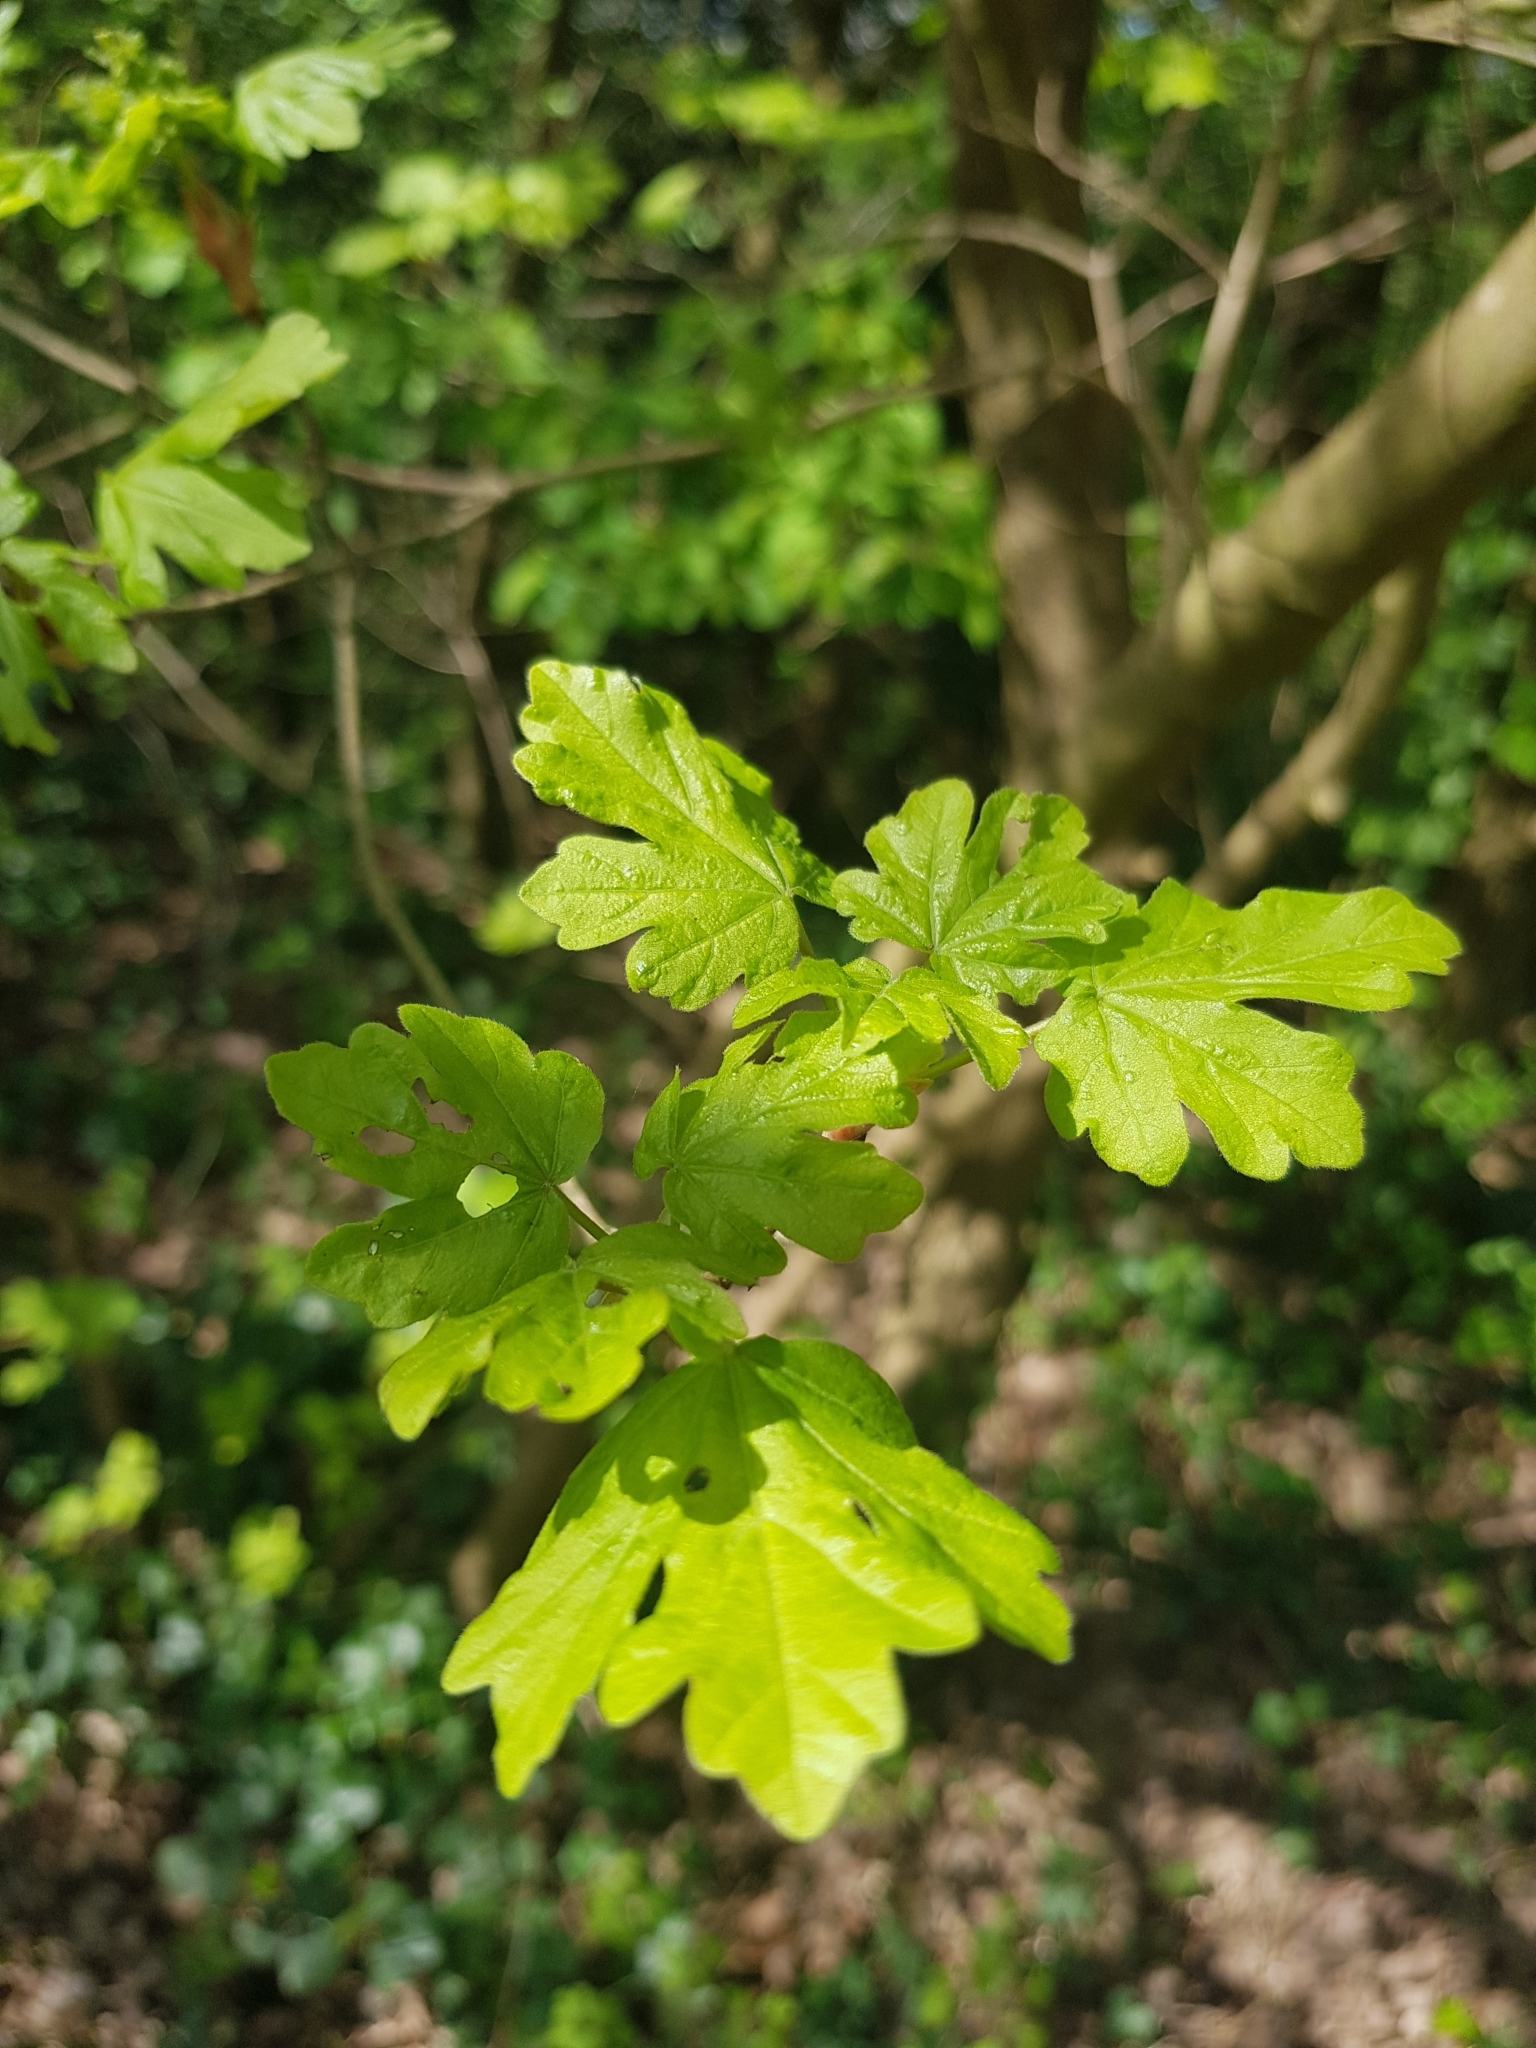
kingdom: Plantae
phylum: Tracheophyta
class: Magnoliopsida
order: Sapindales
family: Sapindaceae
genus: Acer
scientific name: Acer campestre
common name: Field maple
